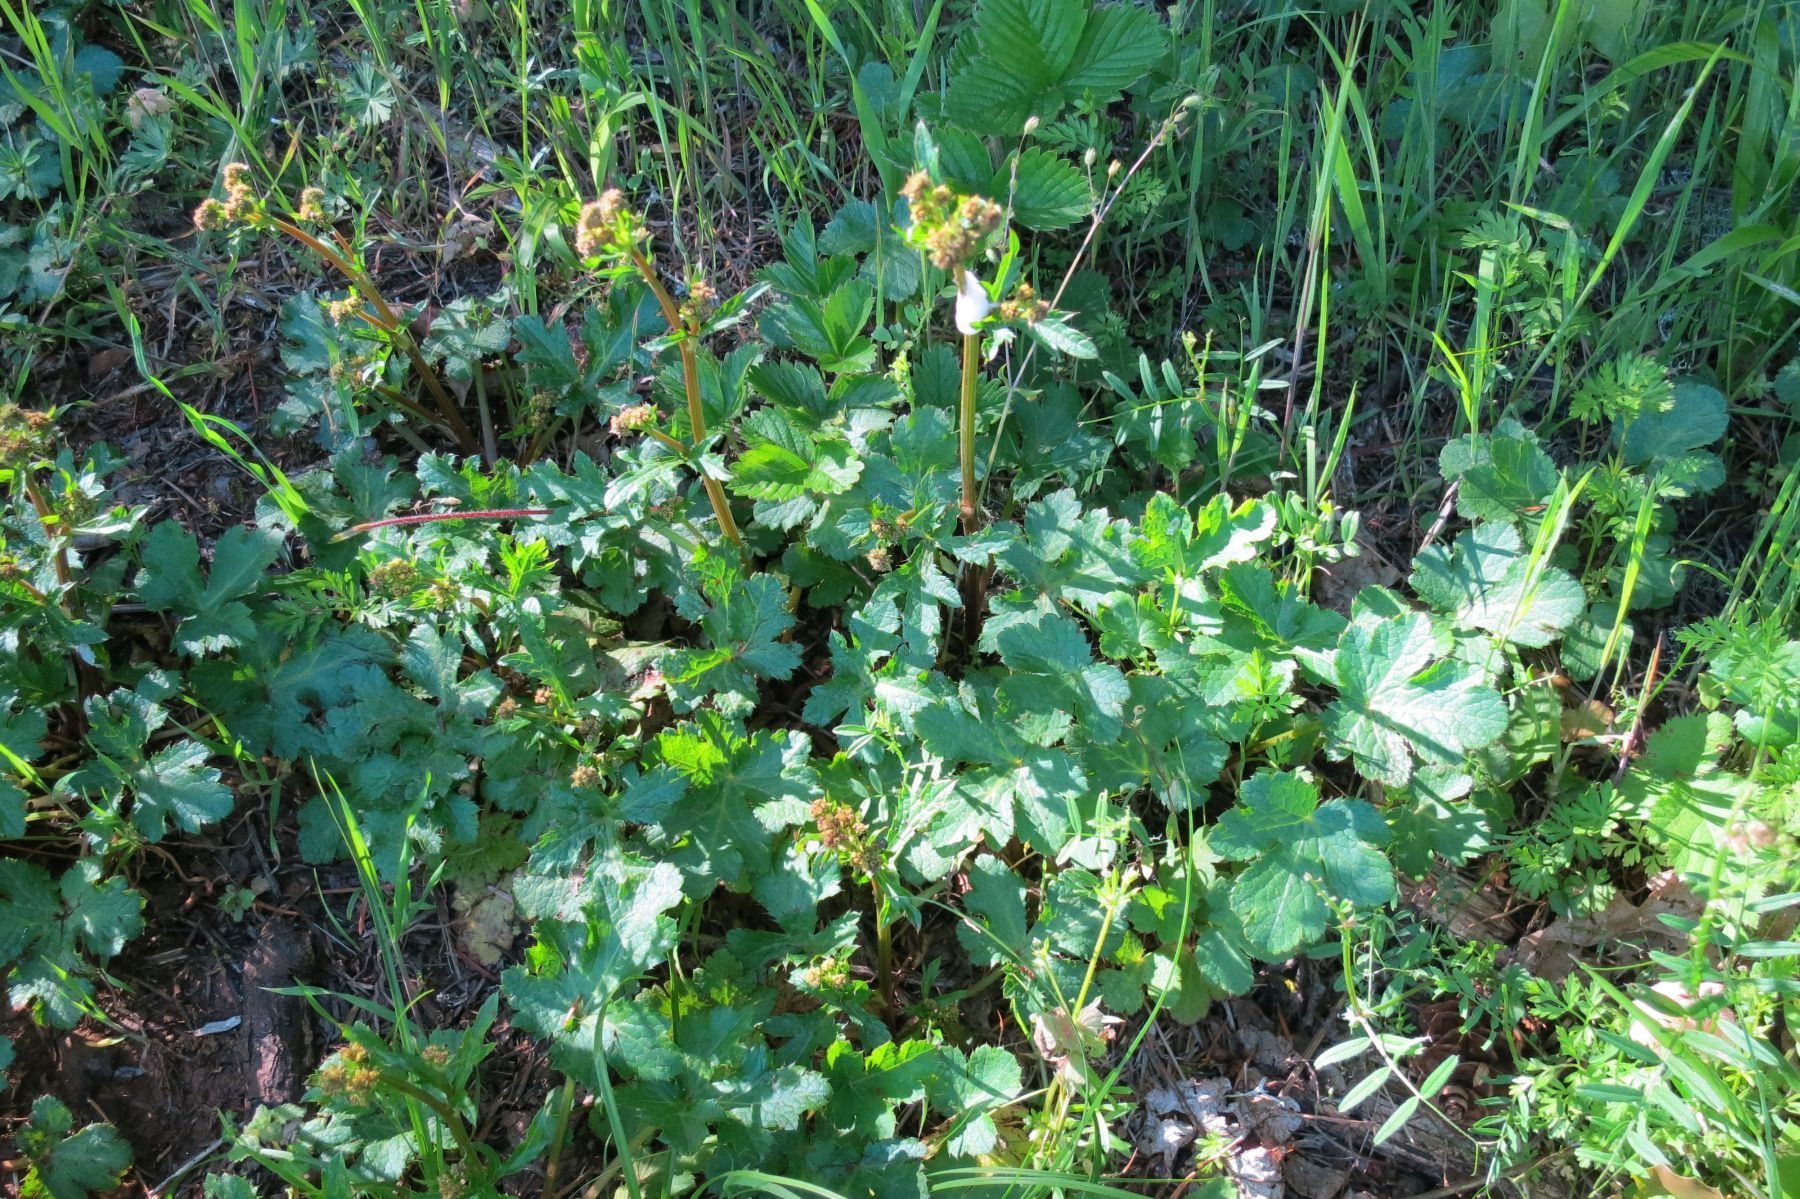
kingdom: Plantae
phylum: Tracheophyta
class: Magnoliopsida
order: Apiales
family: Apiaceae
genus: Sanicula
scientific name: Sanicula crassicaulis
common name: Western snakeroot
